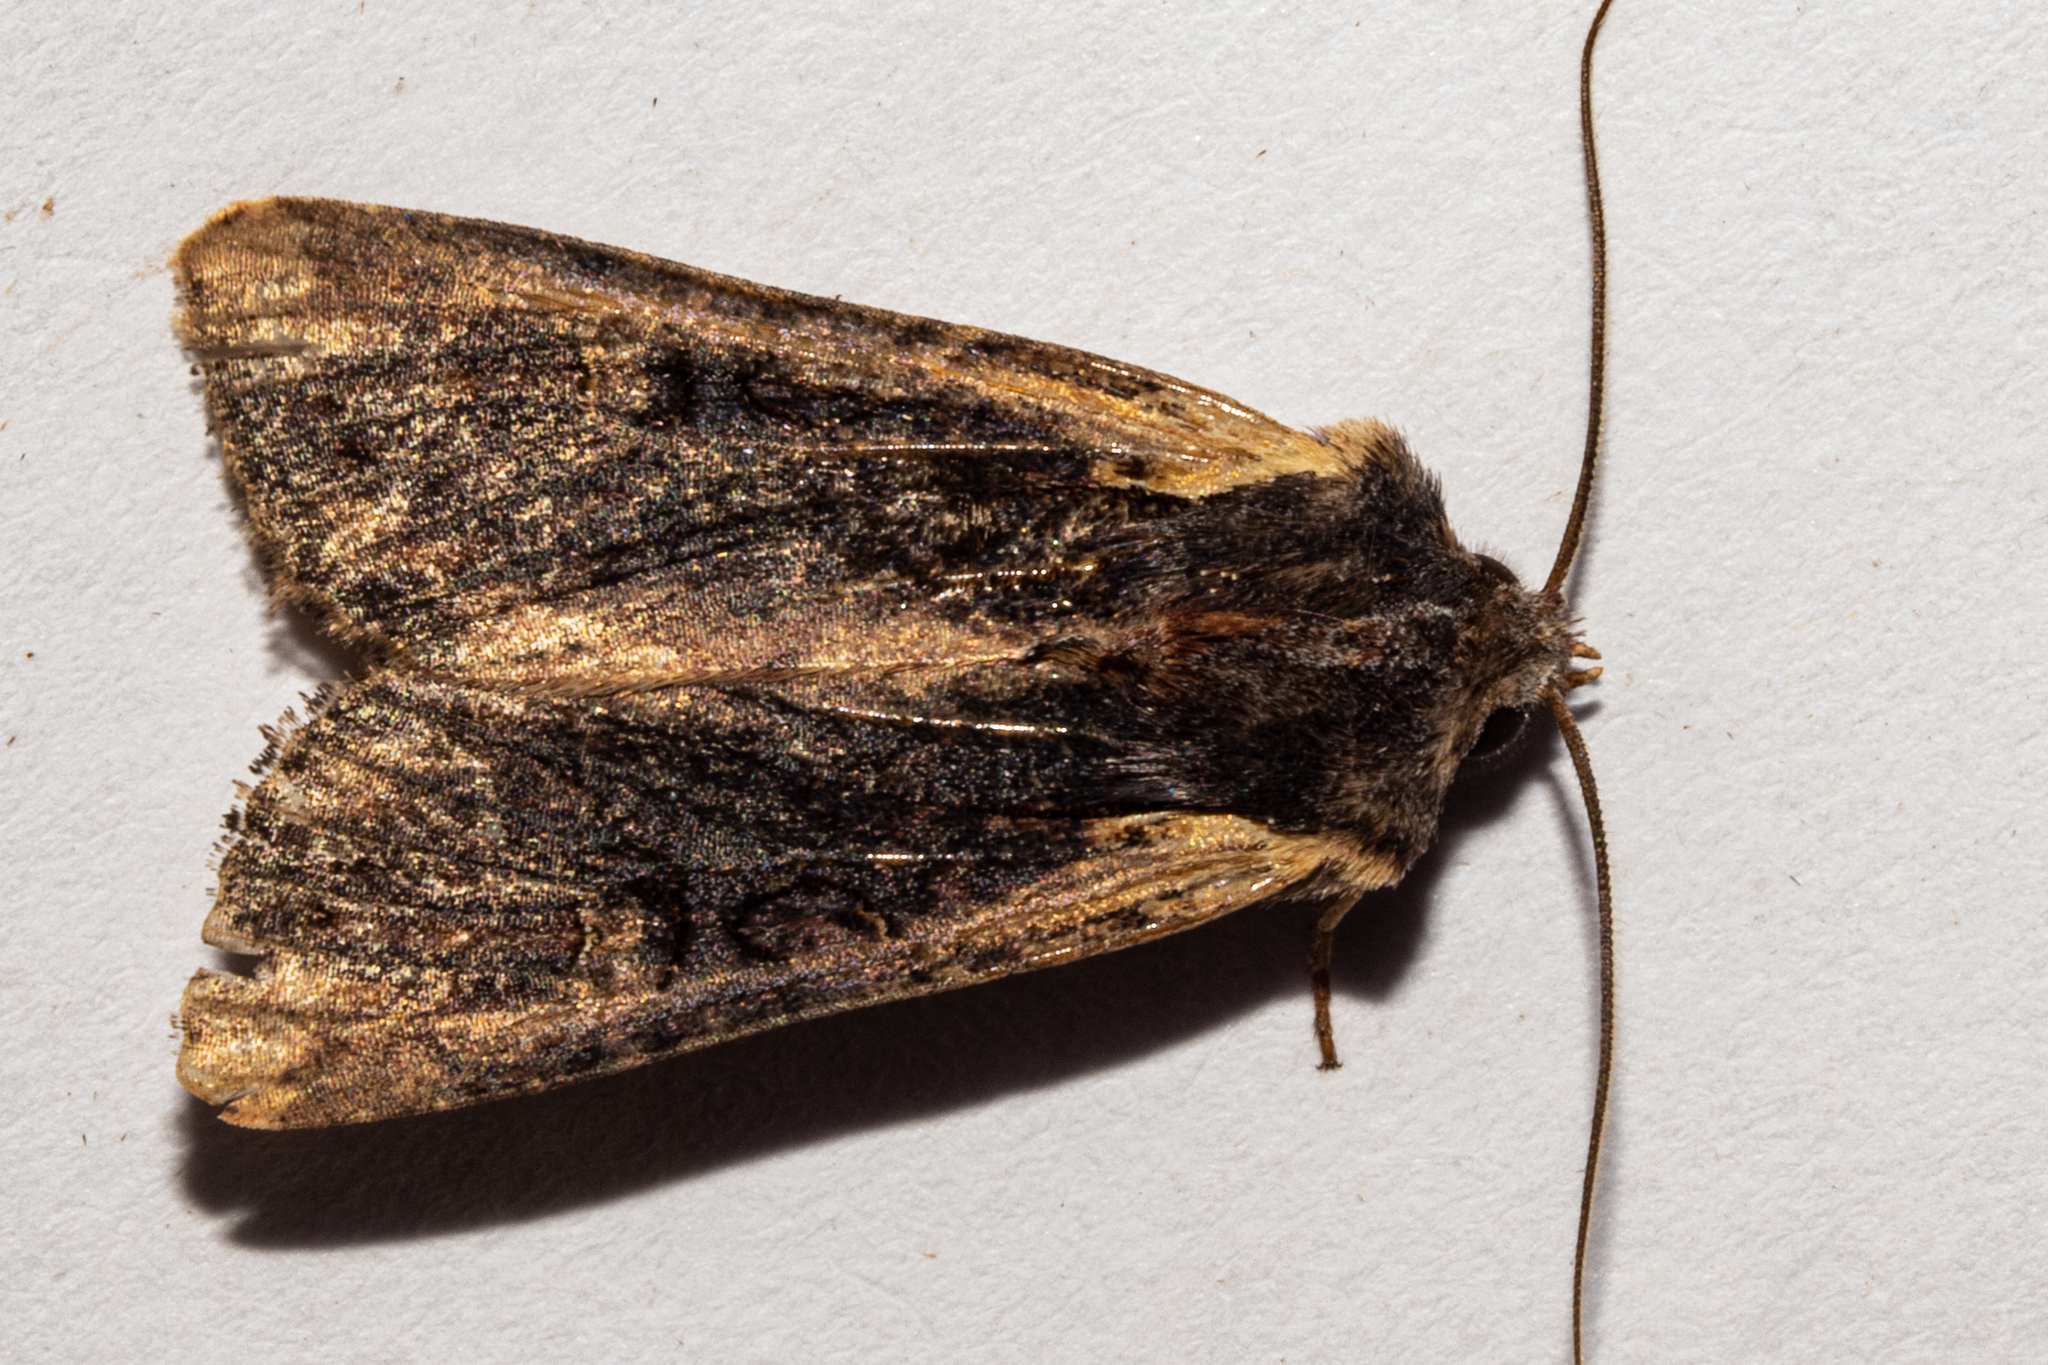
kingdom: Animalia
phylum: Arthropoda
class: Insecta
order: Lepidoptera
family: Noctuidae
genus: Ichneutica
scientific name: Ichneutica omoplaca
